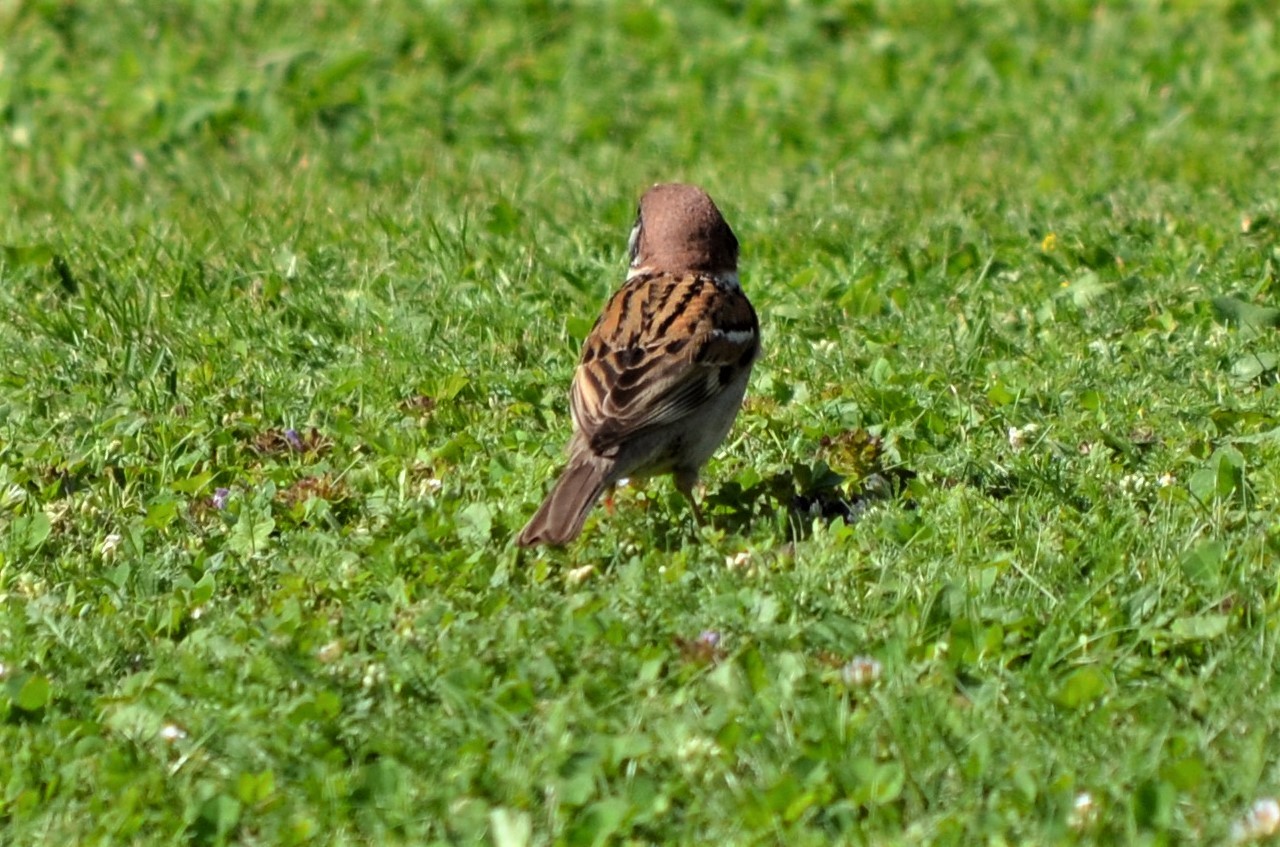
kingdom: Animalia
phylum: Chordata
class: Aves
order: Passeriformes
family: Passeridae
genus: Passer
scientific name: Passer montanus
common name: Eurasian tree sparrow
